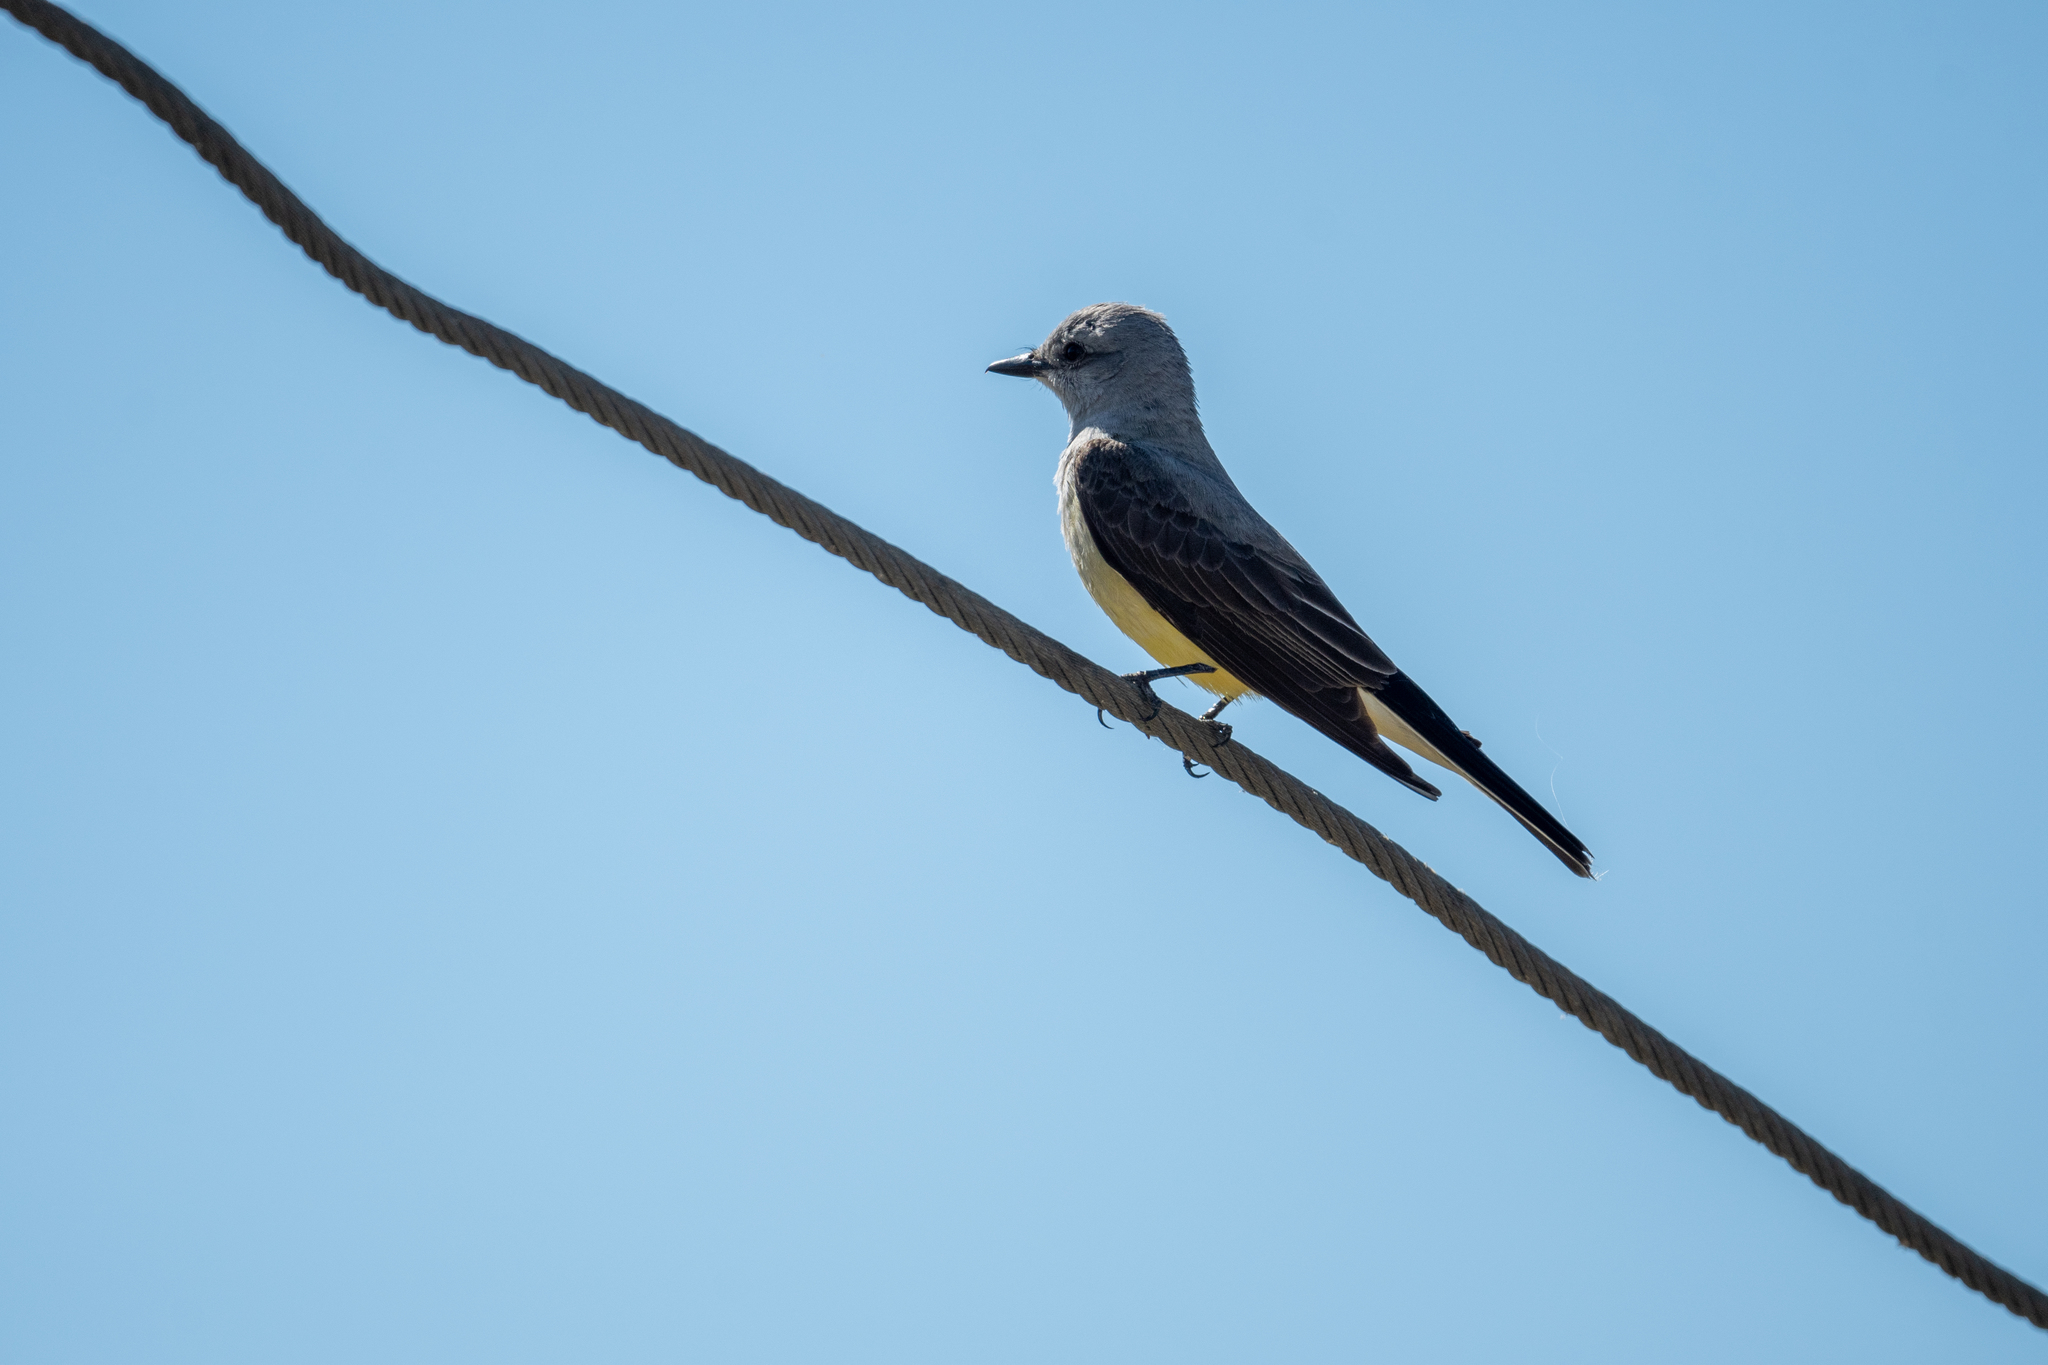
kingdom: Animalia
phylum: Chordata
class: Aves
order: Passeriformes
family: Tyrannidae
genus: Tyrannus
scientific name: Tyrannus verticalis
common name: Western kingbird
